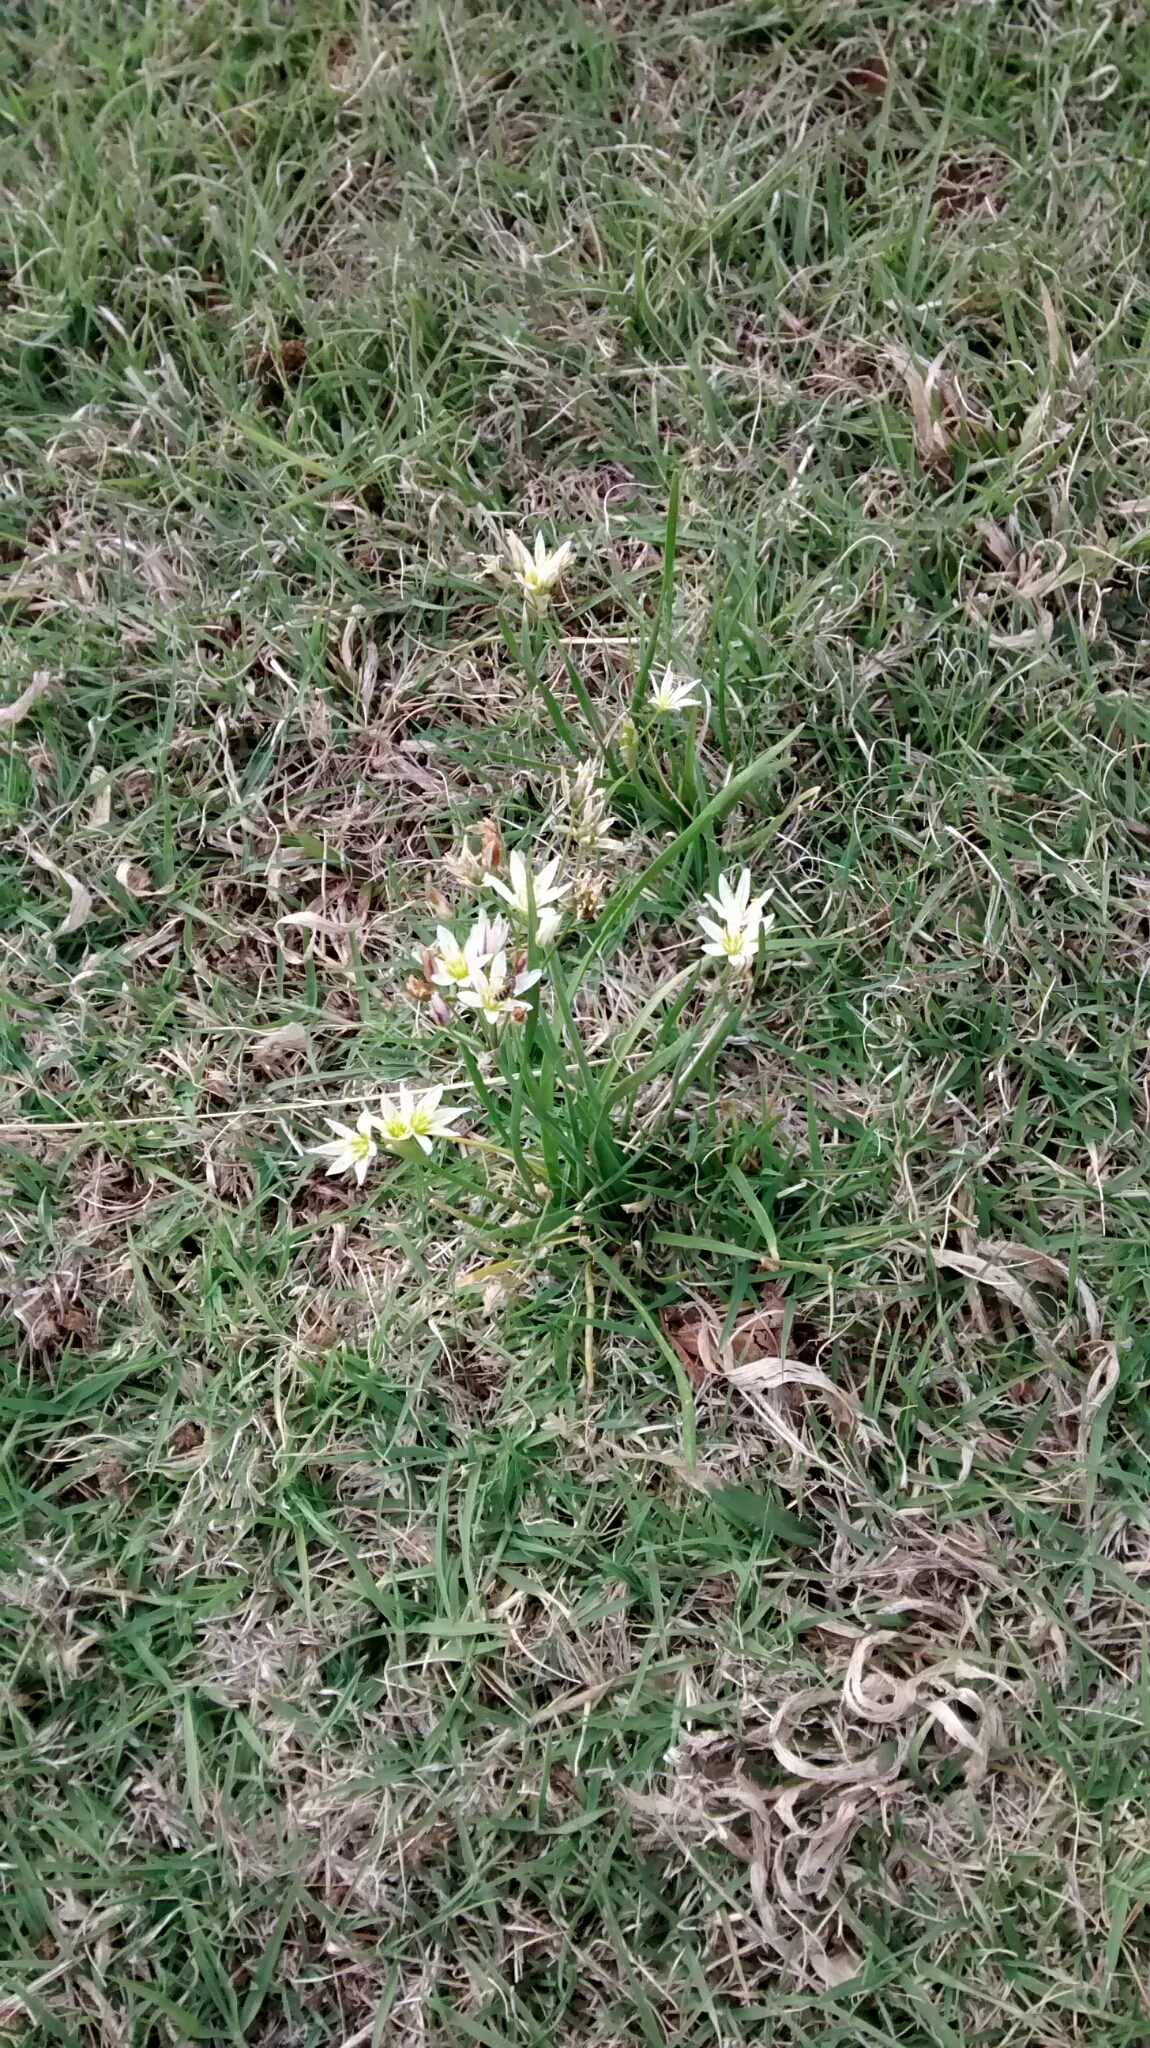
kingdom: Plantae
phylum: Tracheophyta
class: Liliopsida
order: Asparagales
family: Amaryllidaceae
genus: Nothoscordum
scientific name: Nothoscordum bivalve
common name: Crow-poison
